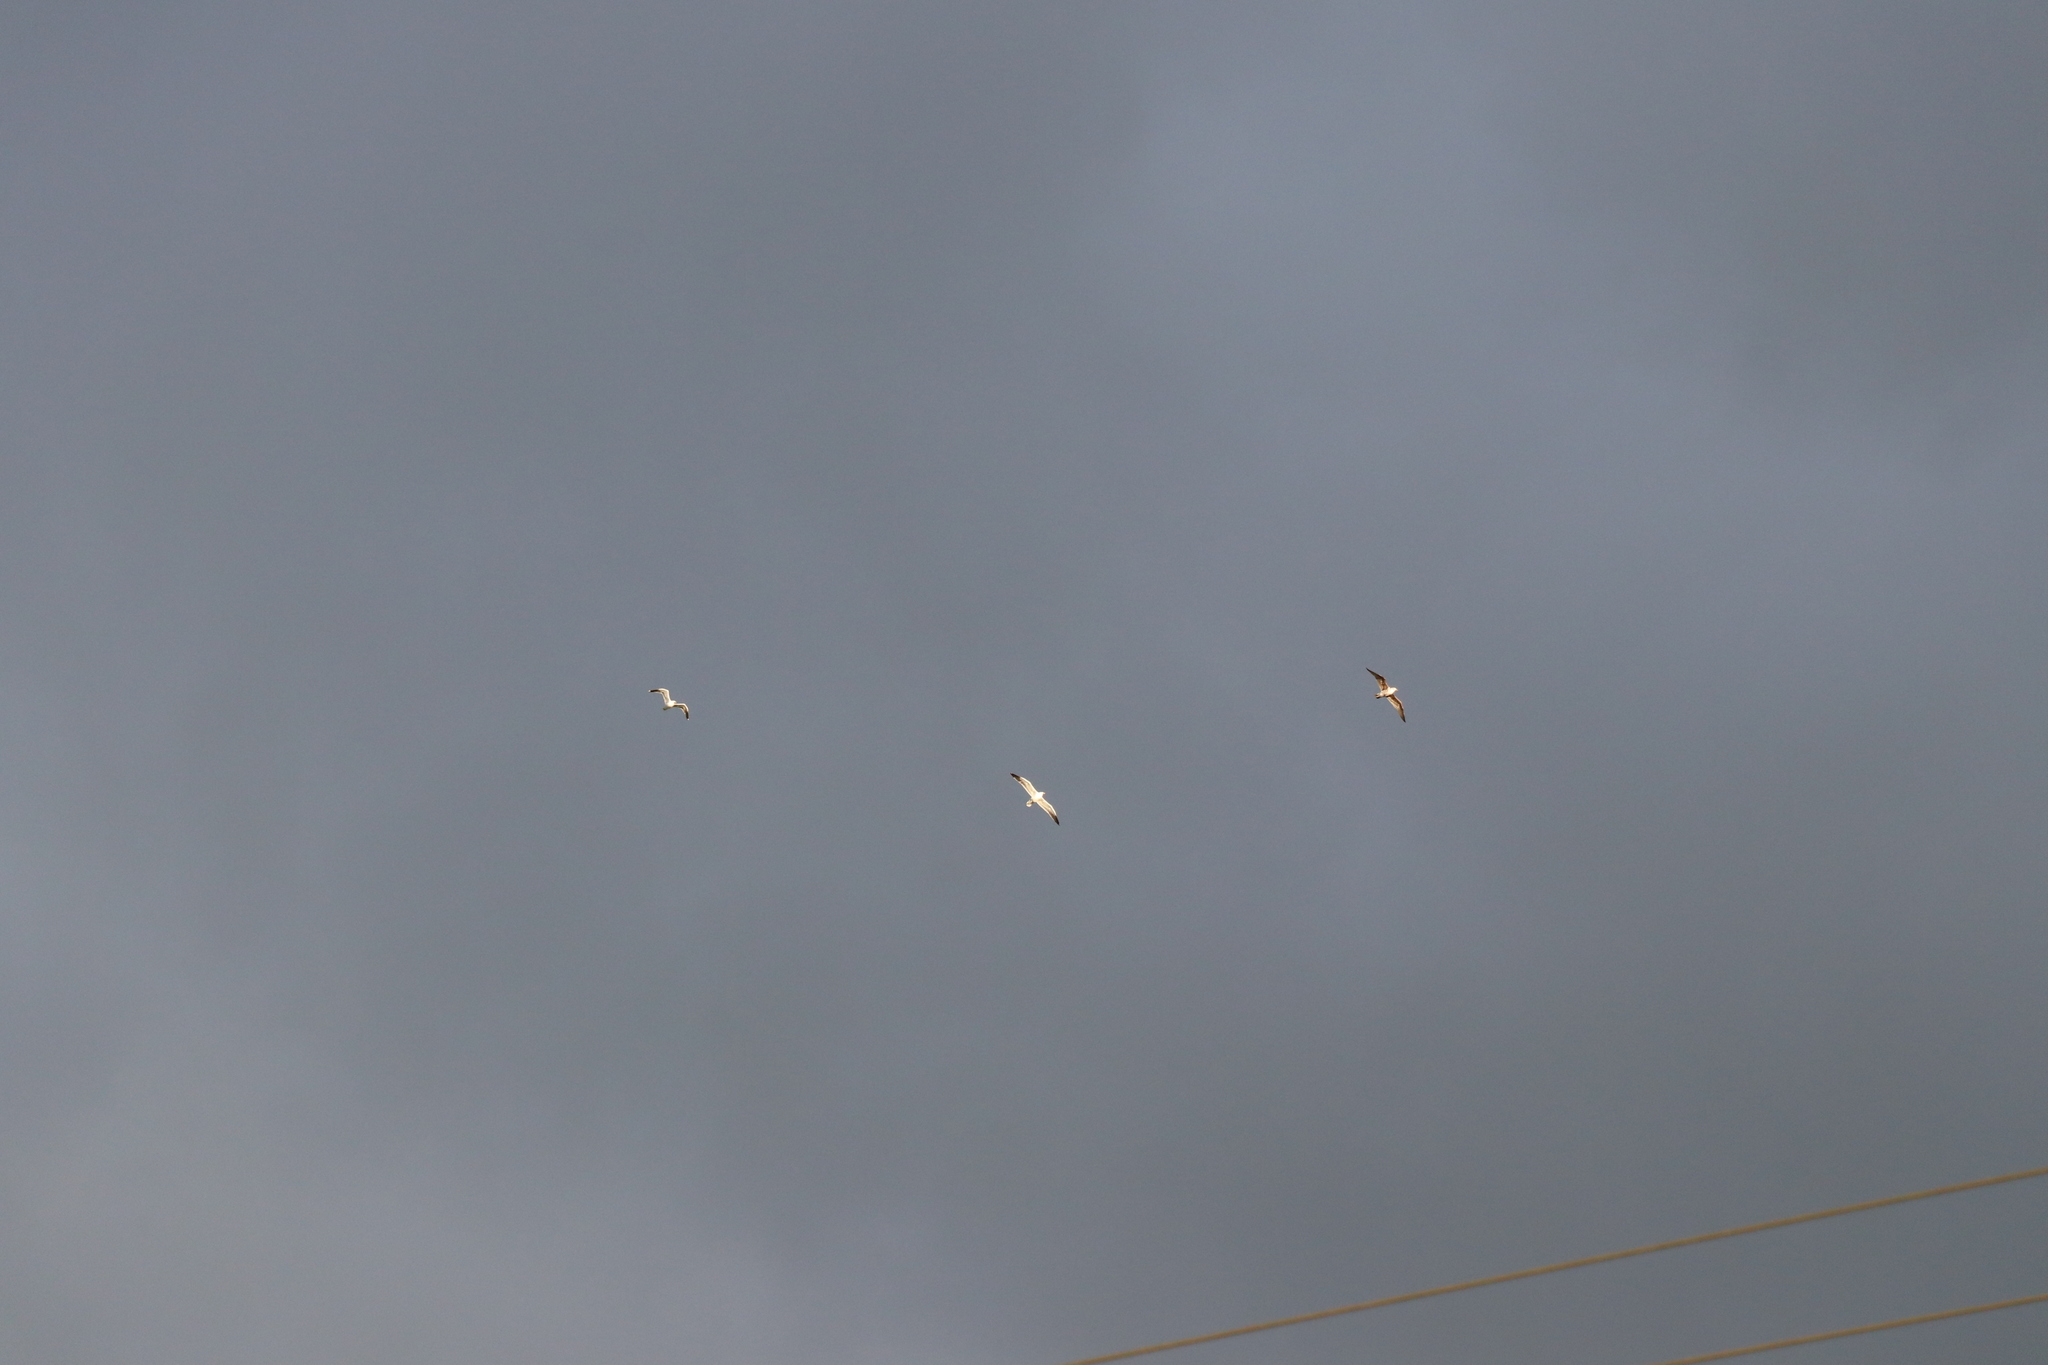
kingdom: Animalia
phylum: Chordata
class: Aves
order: Charadriiformes
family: Laridae
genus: Larus
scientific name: Larus dominicanus
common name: Kelp gull
